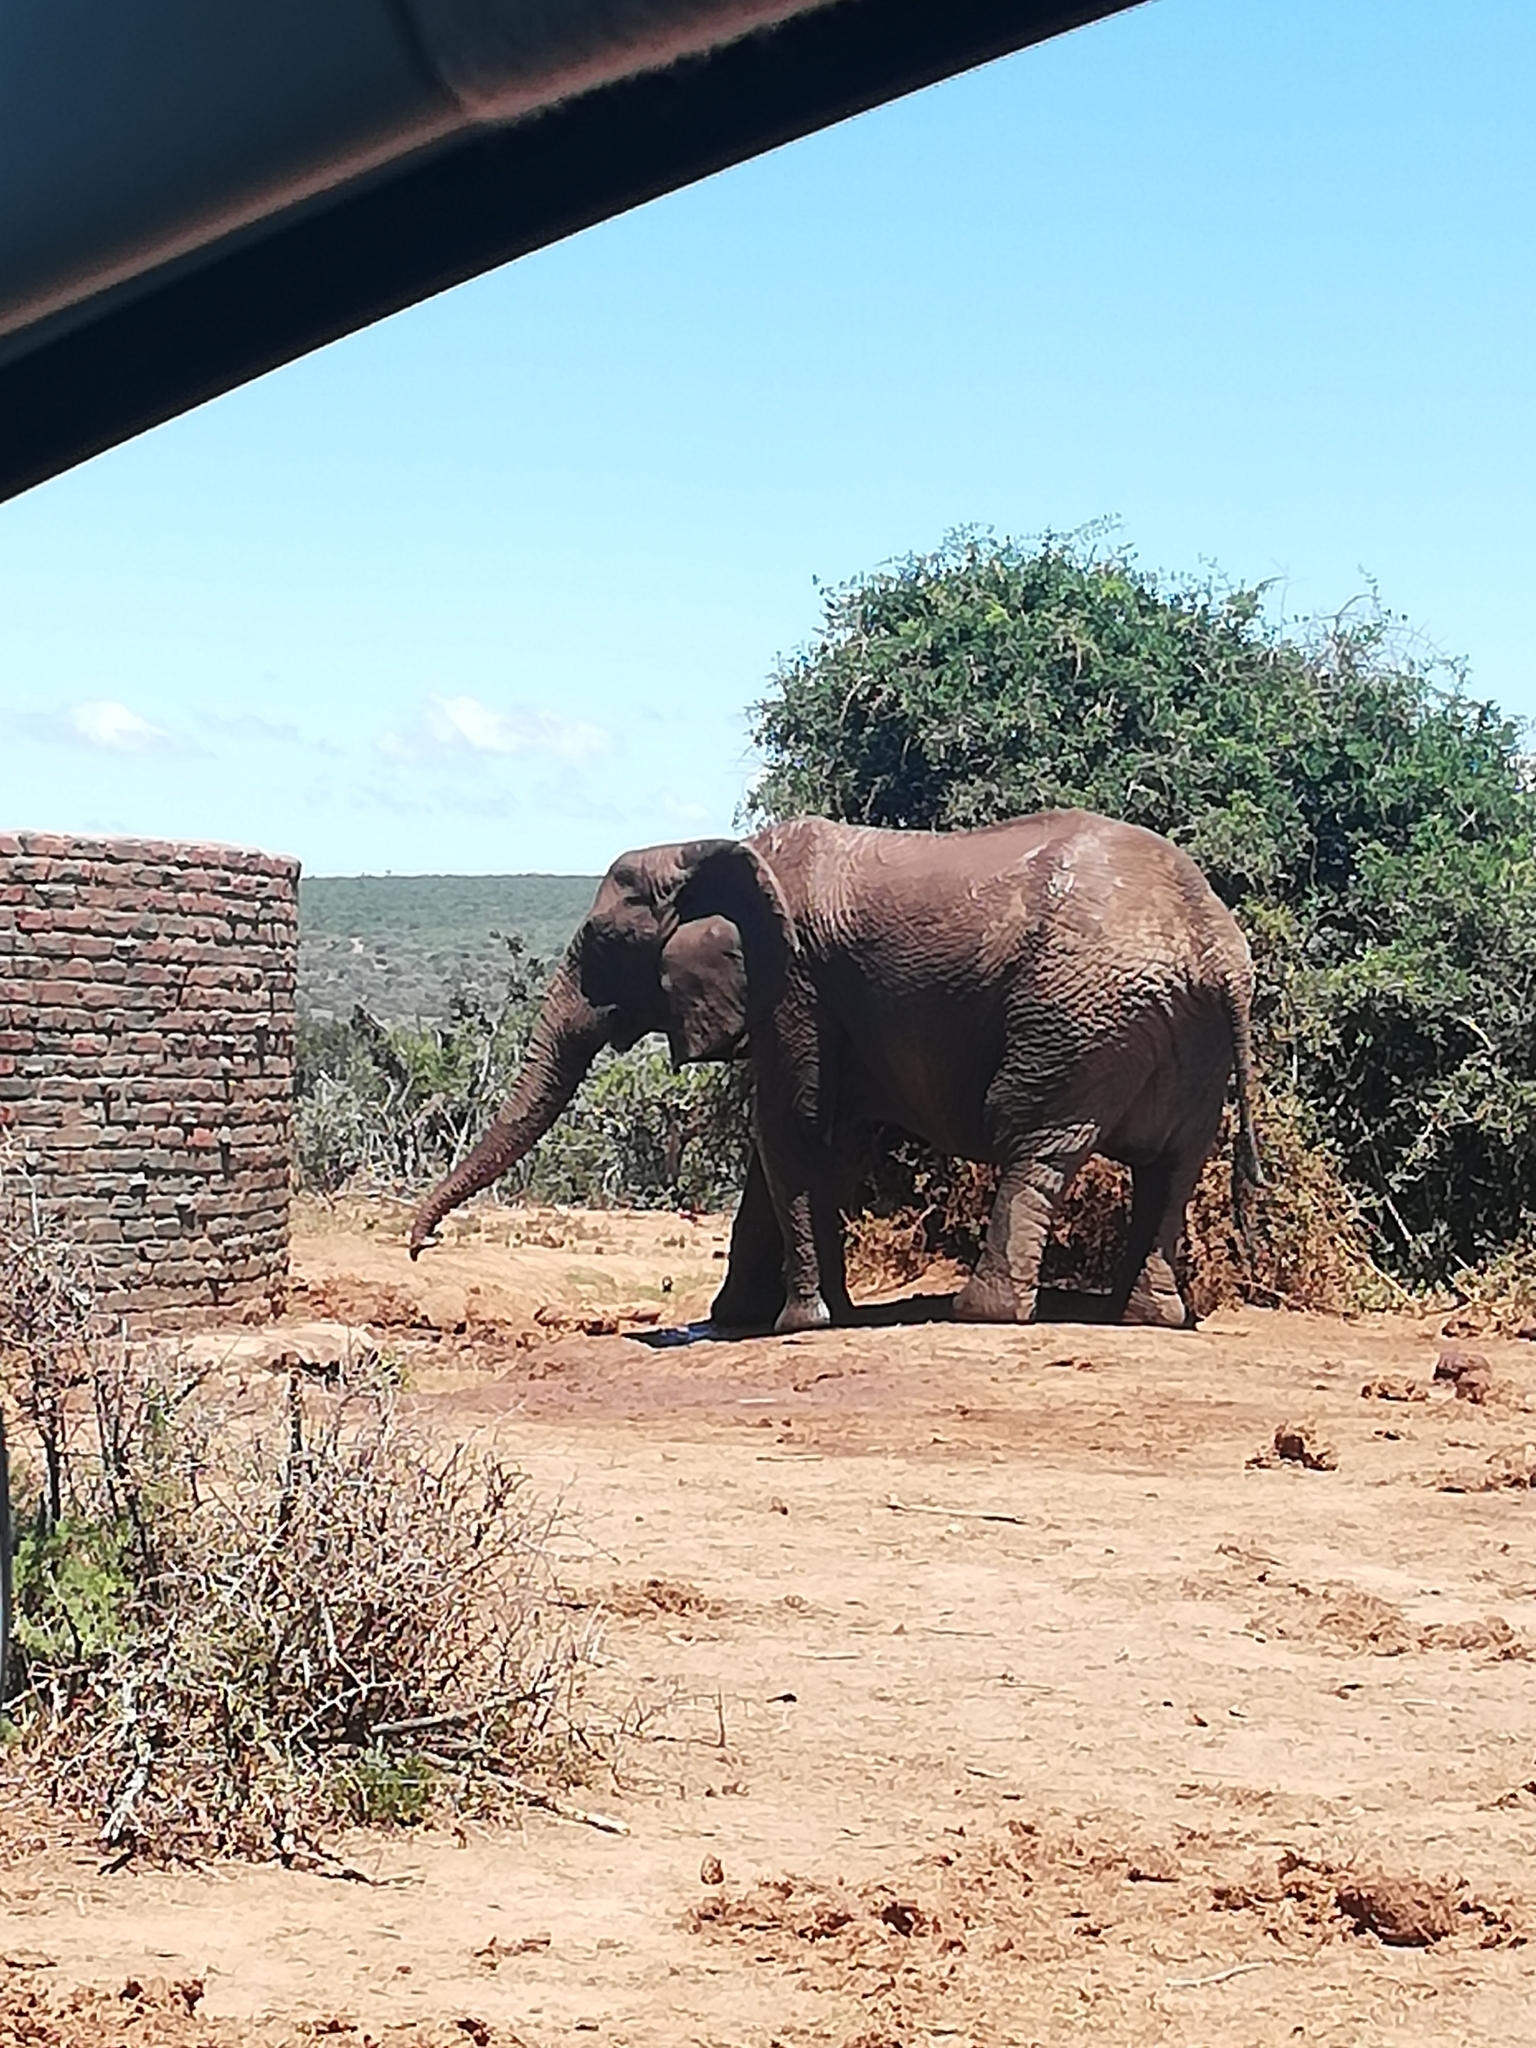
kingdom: Animalia
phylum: Chordata
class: Mammalia
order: Proboscidea
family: Elephantidae
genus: Loxodonta
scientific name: Loxodonta africana
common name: African elephant
